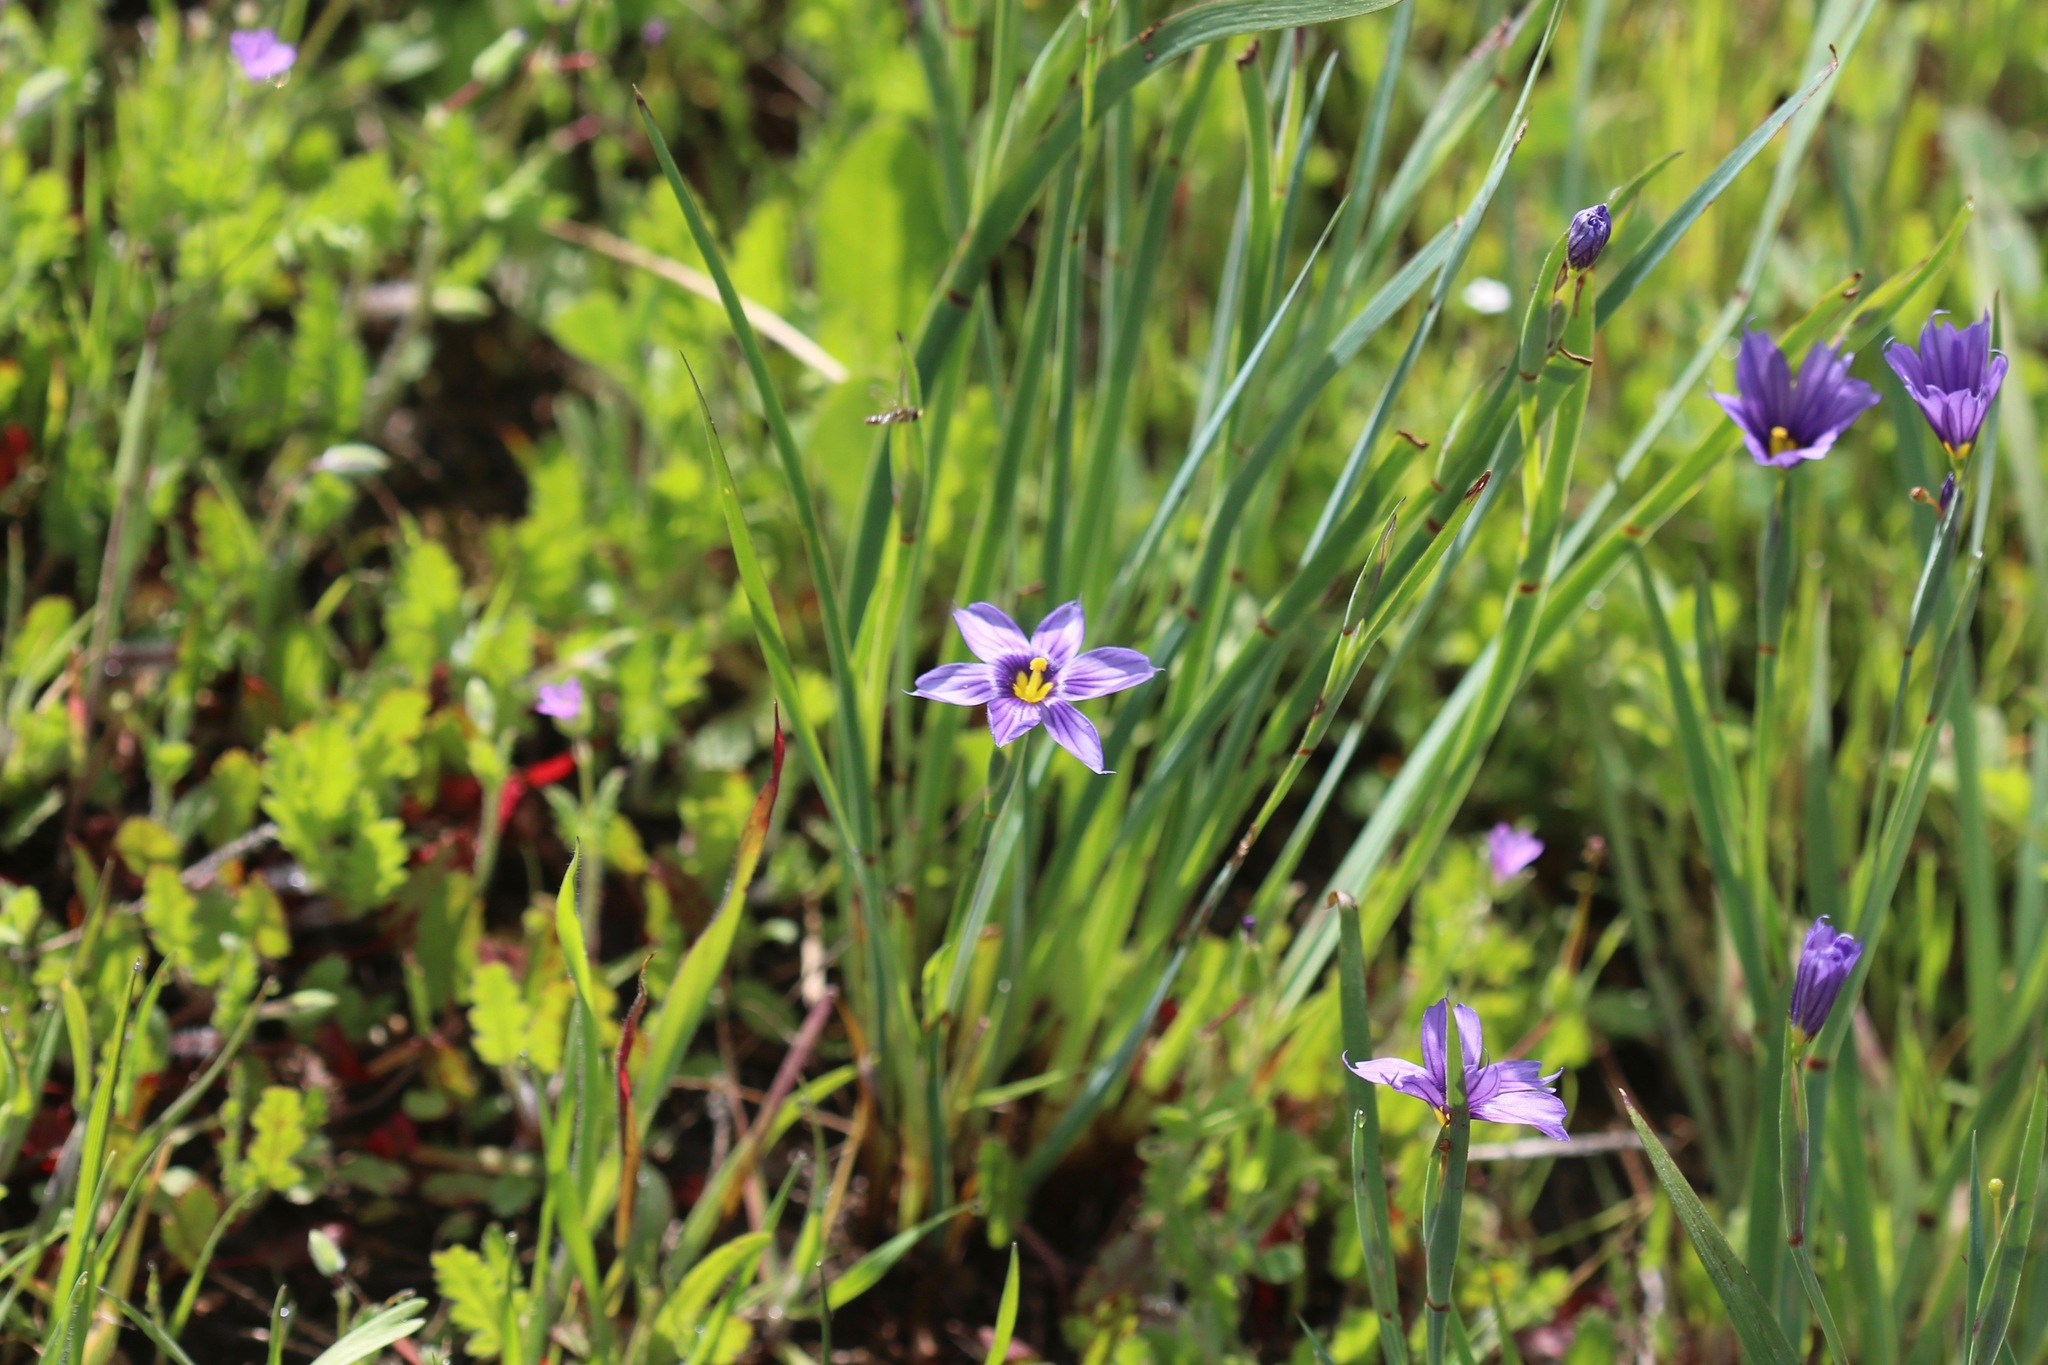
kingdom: Plantae
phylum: Tracheophyta
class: Liliopsida
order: Asparagales
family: Iridaceae
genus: Sisyrinchium
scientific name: Sisyrinchium bellum
